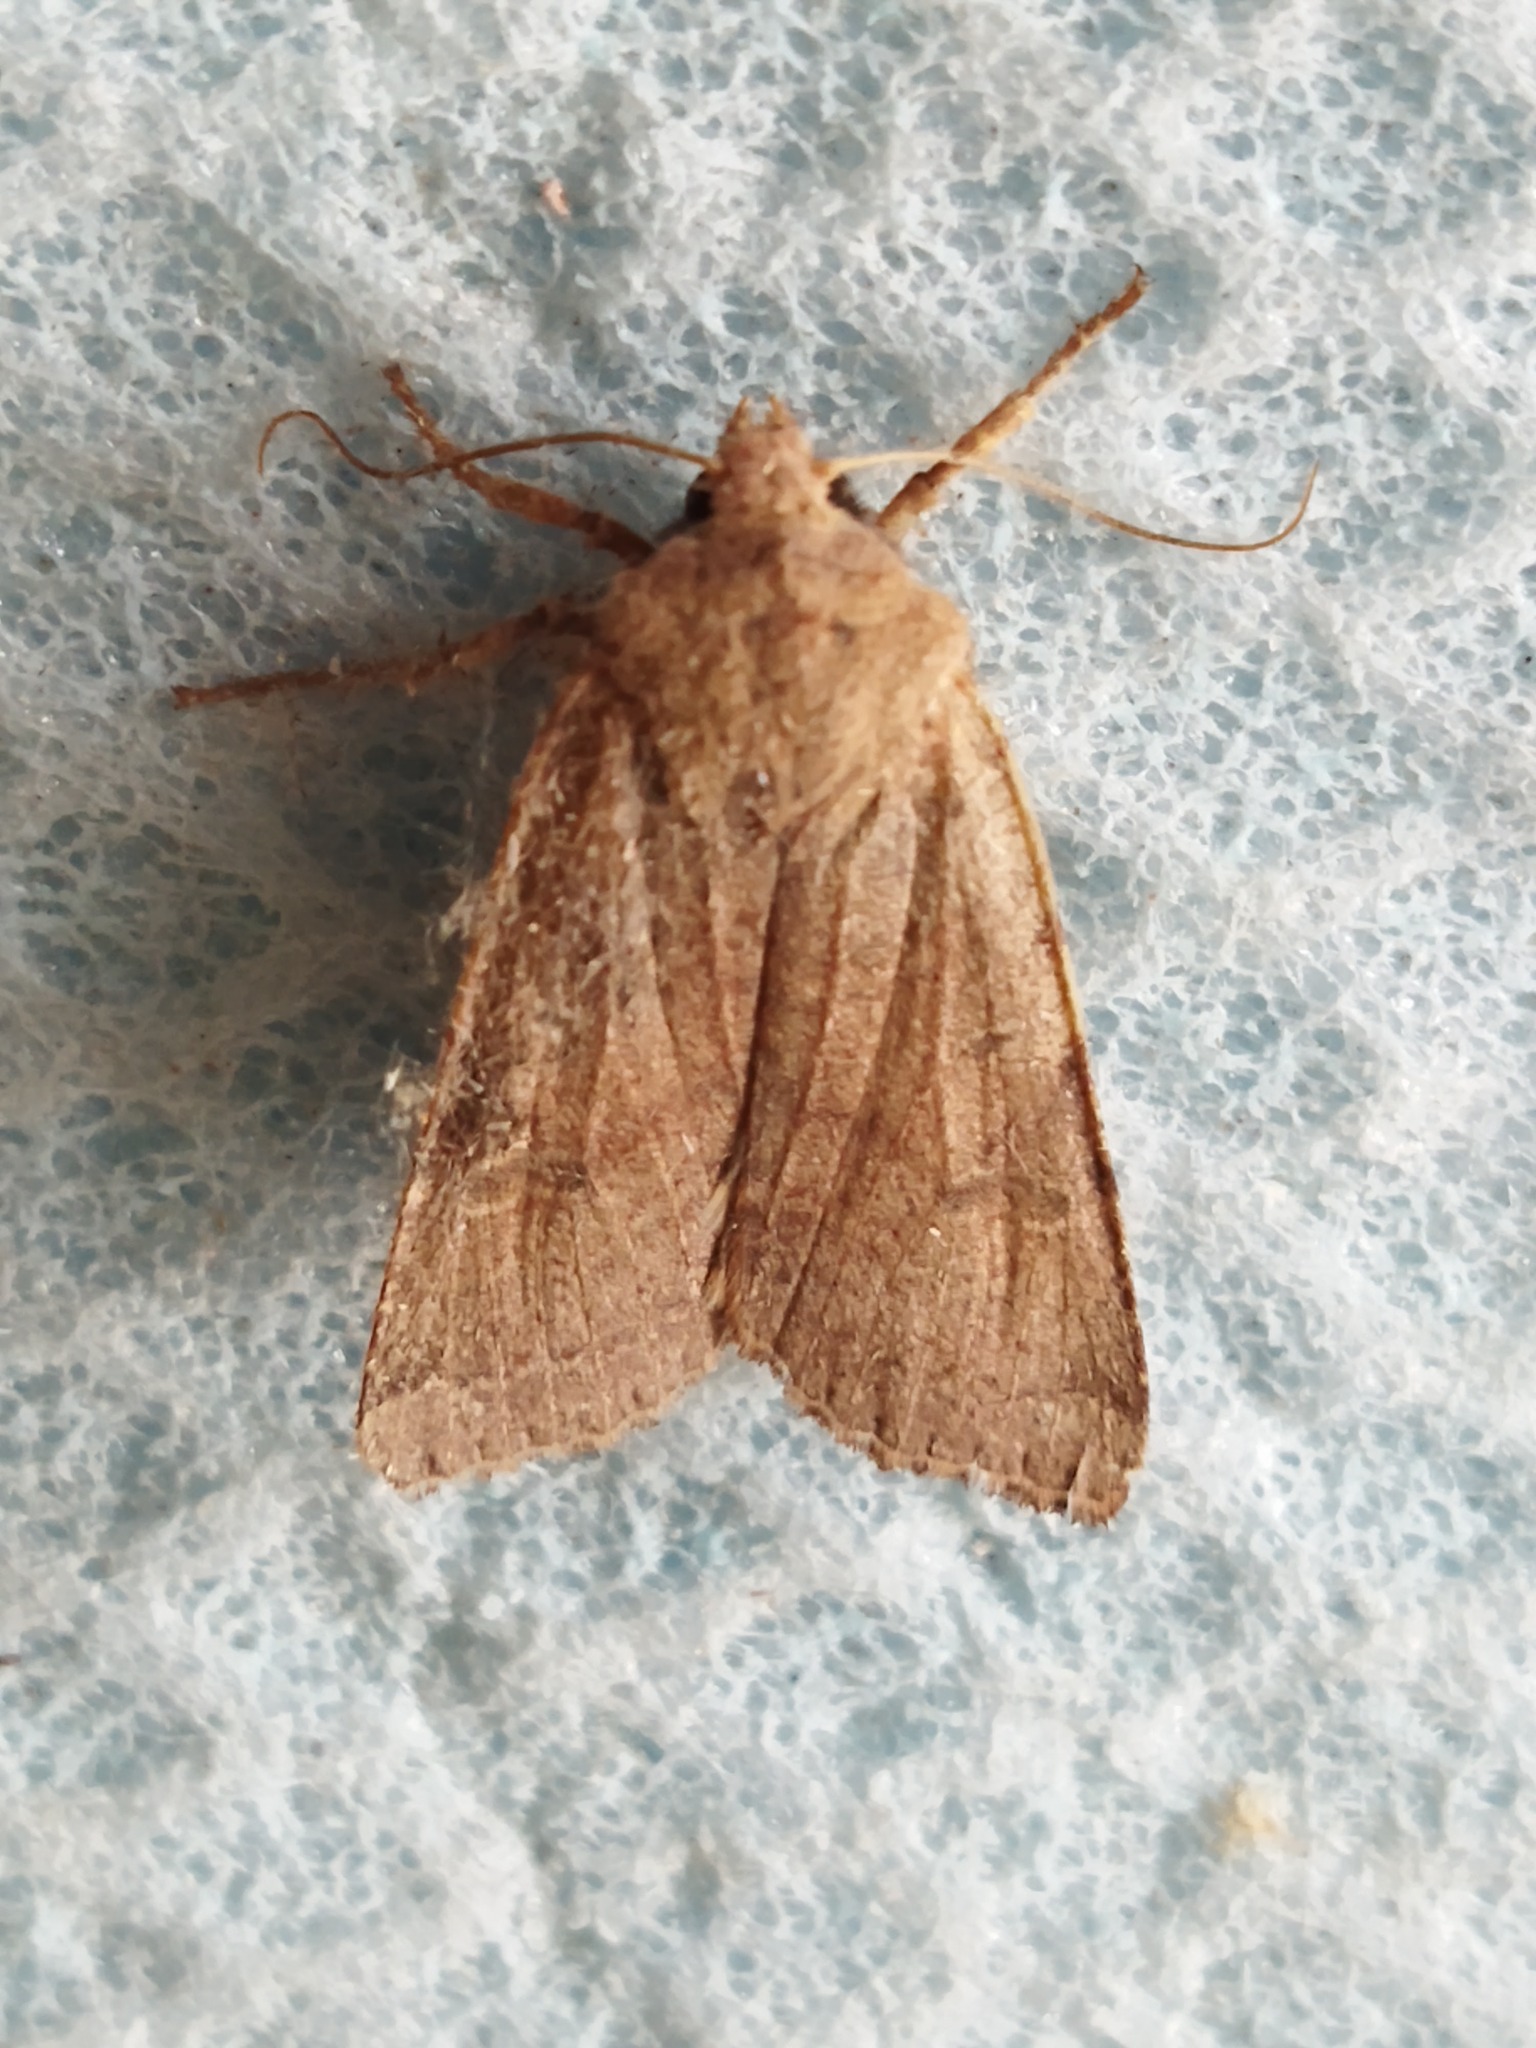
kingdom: Animalia
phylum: Arthropoda
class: Insecta
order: Lepidoptera
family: Noctuidae
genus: Agrochola
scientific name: Agrochola lychnidis
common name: Beaded chestnut
